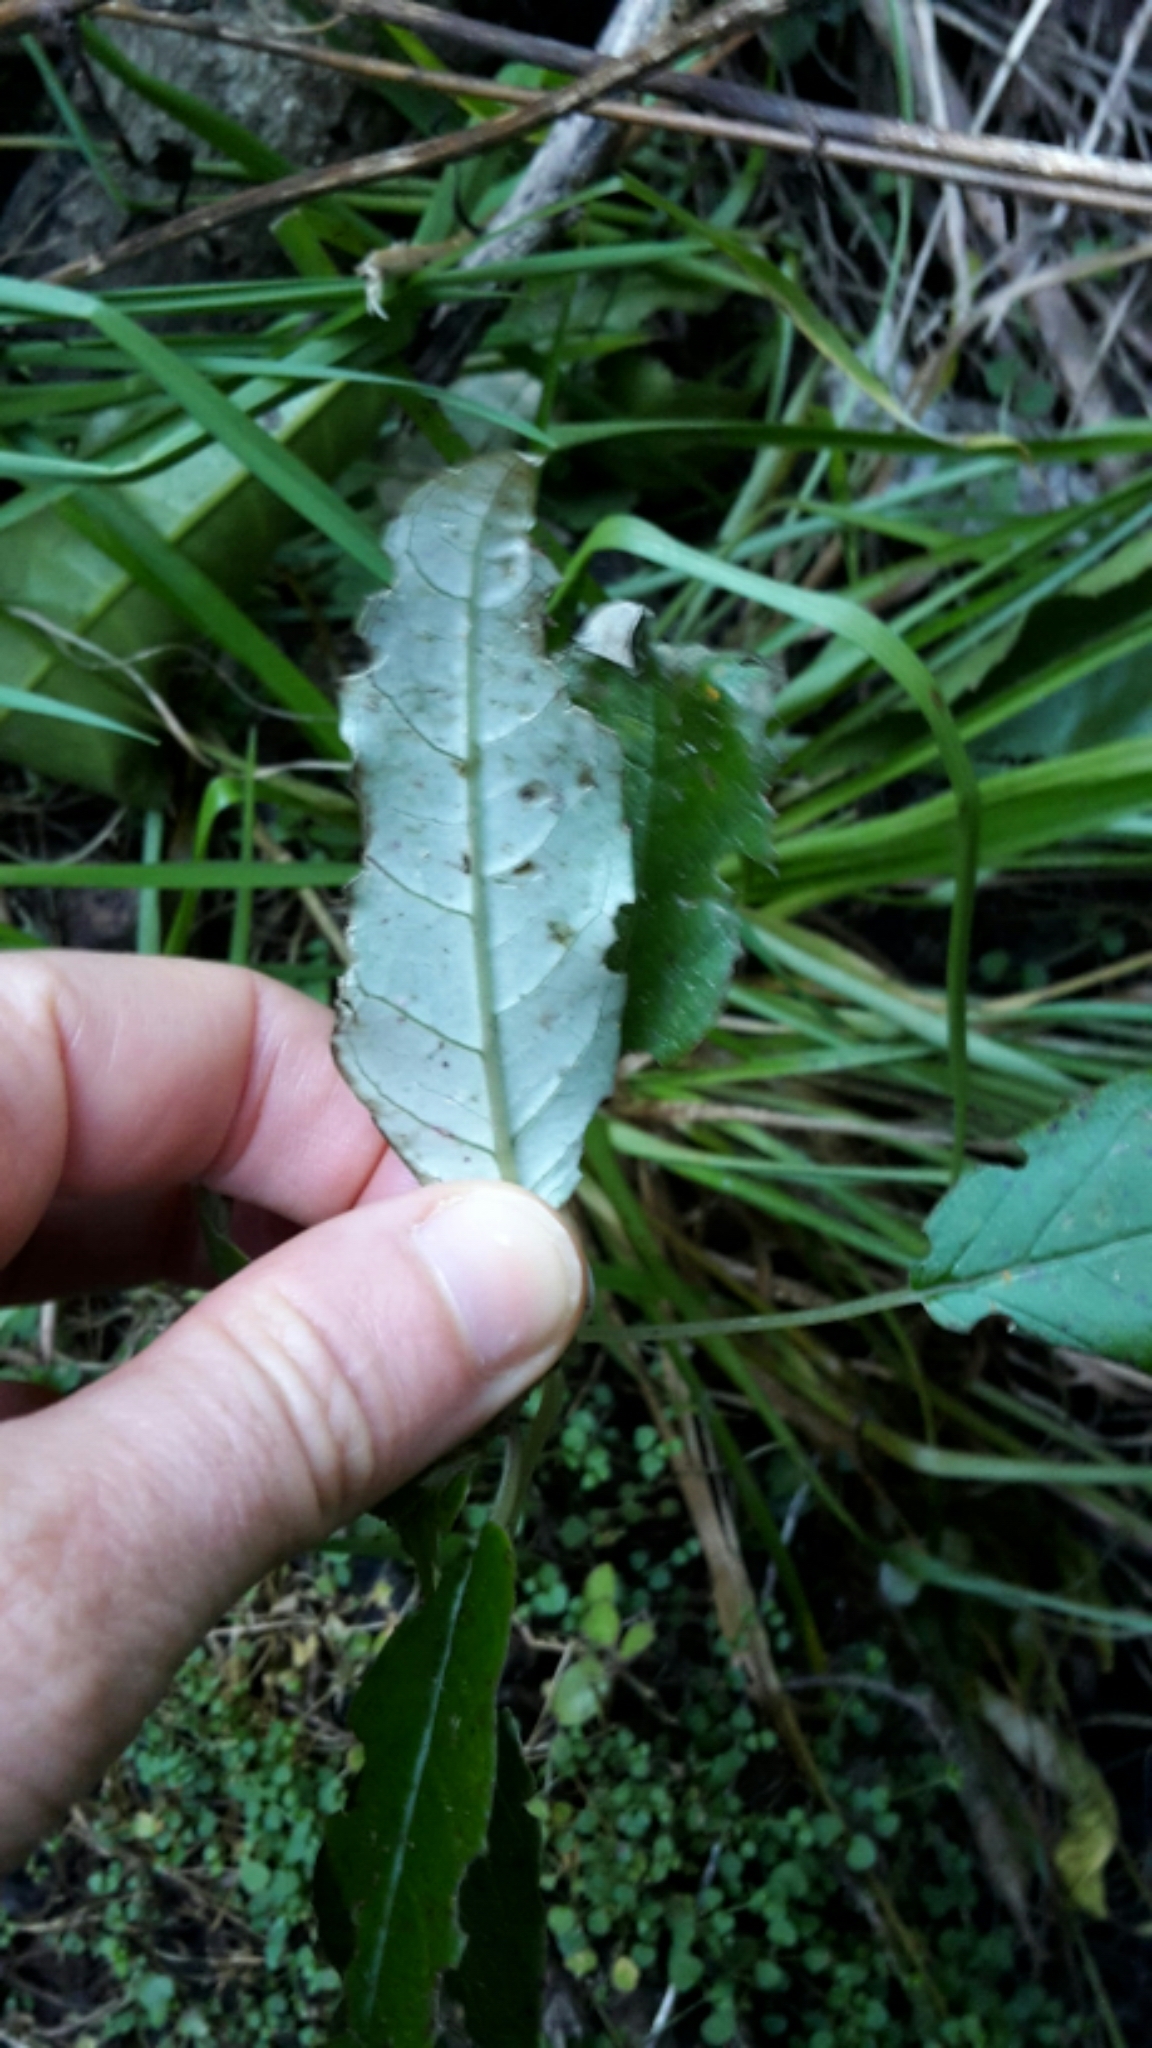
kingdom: Plantae
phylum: Tracheophyta
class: Magnoliopsida
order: Myrtales
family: Onagraceae
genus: Fuchsia
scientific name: Fuchsia excorticata
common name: Tree fuchsia
